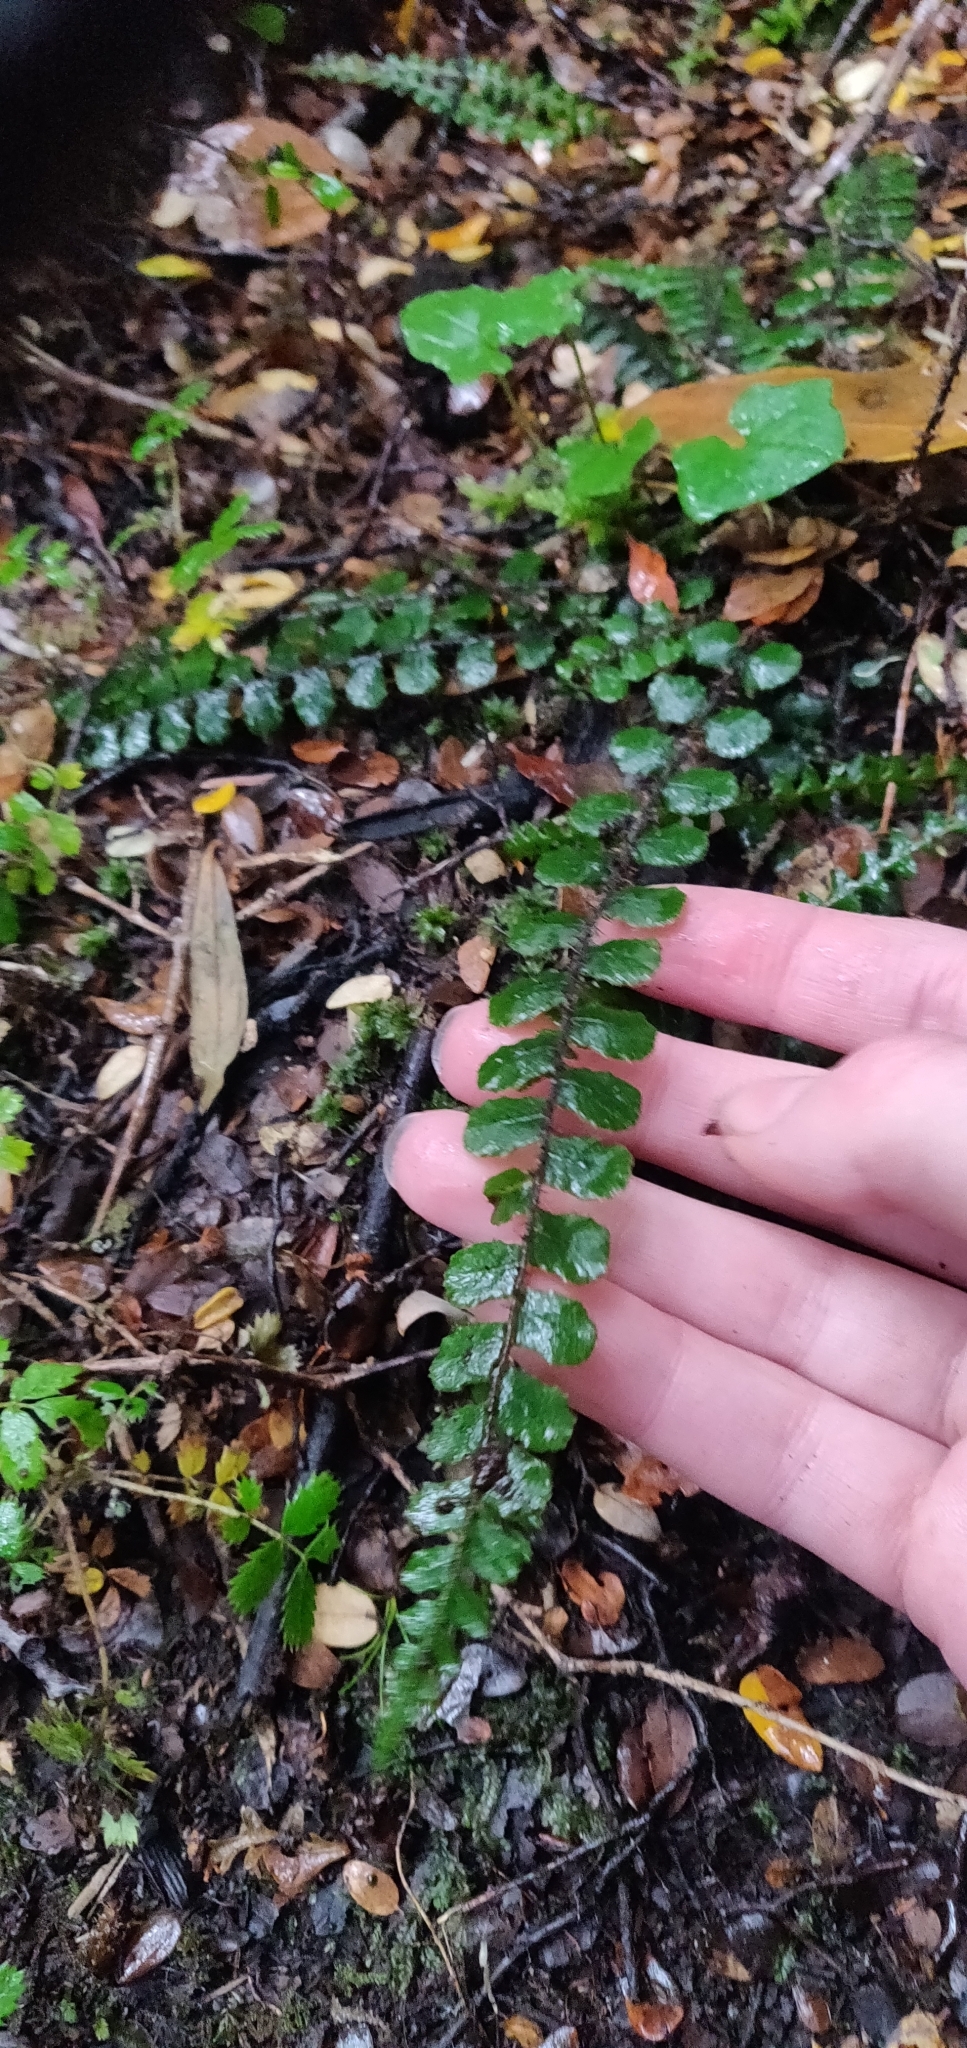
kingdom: Plantae
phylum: Tracheophyta
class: Polypodiopsida
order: Polypodiales
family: Blechnaceae
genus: Cranfillia
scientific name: Cranfillia fluviatilis
